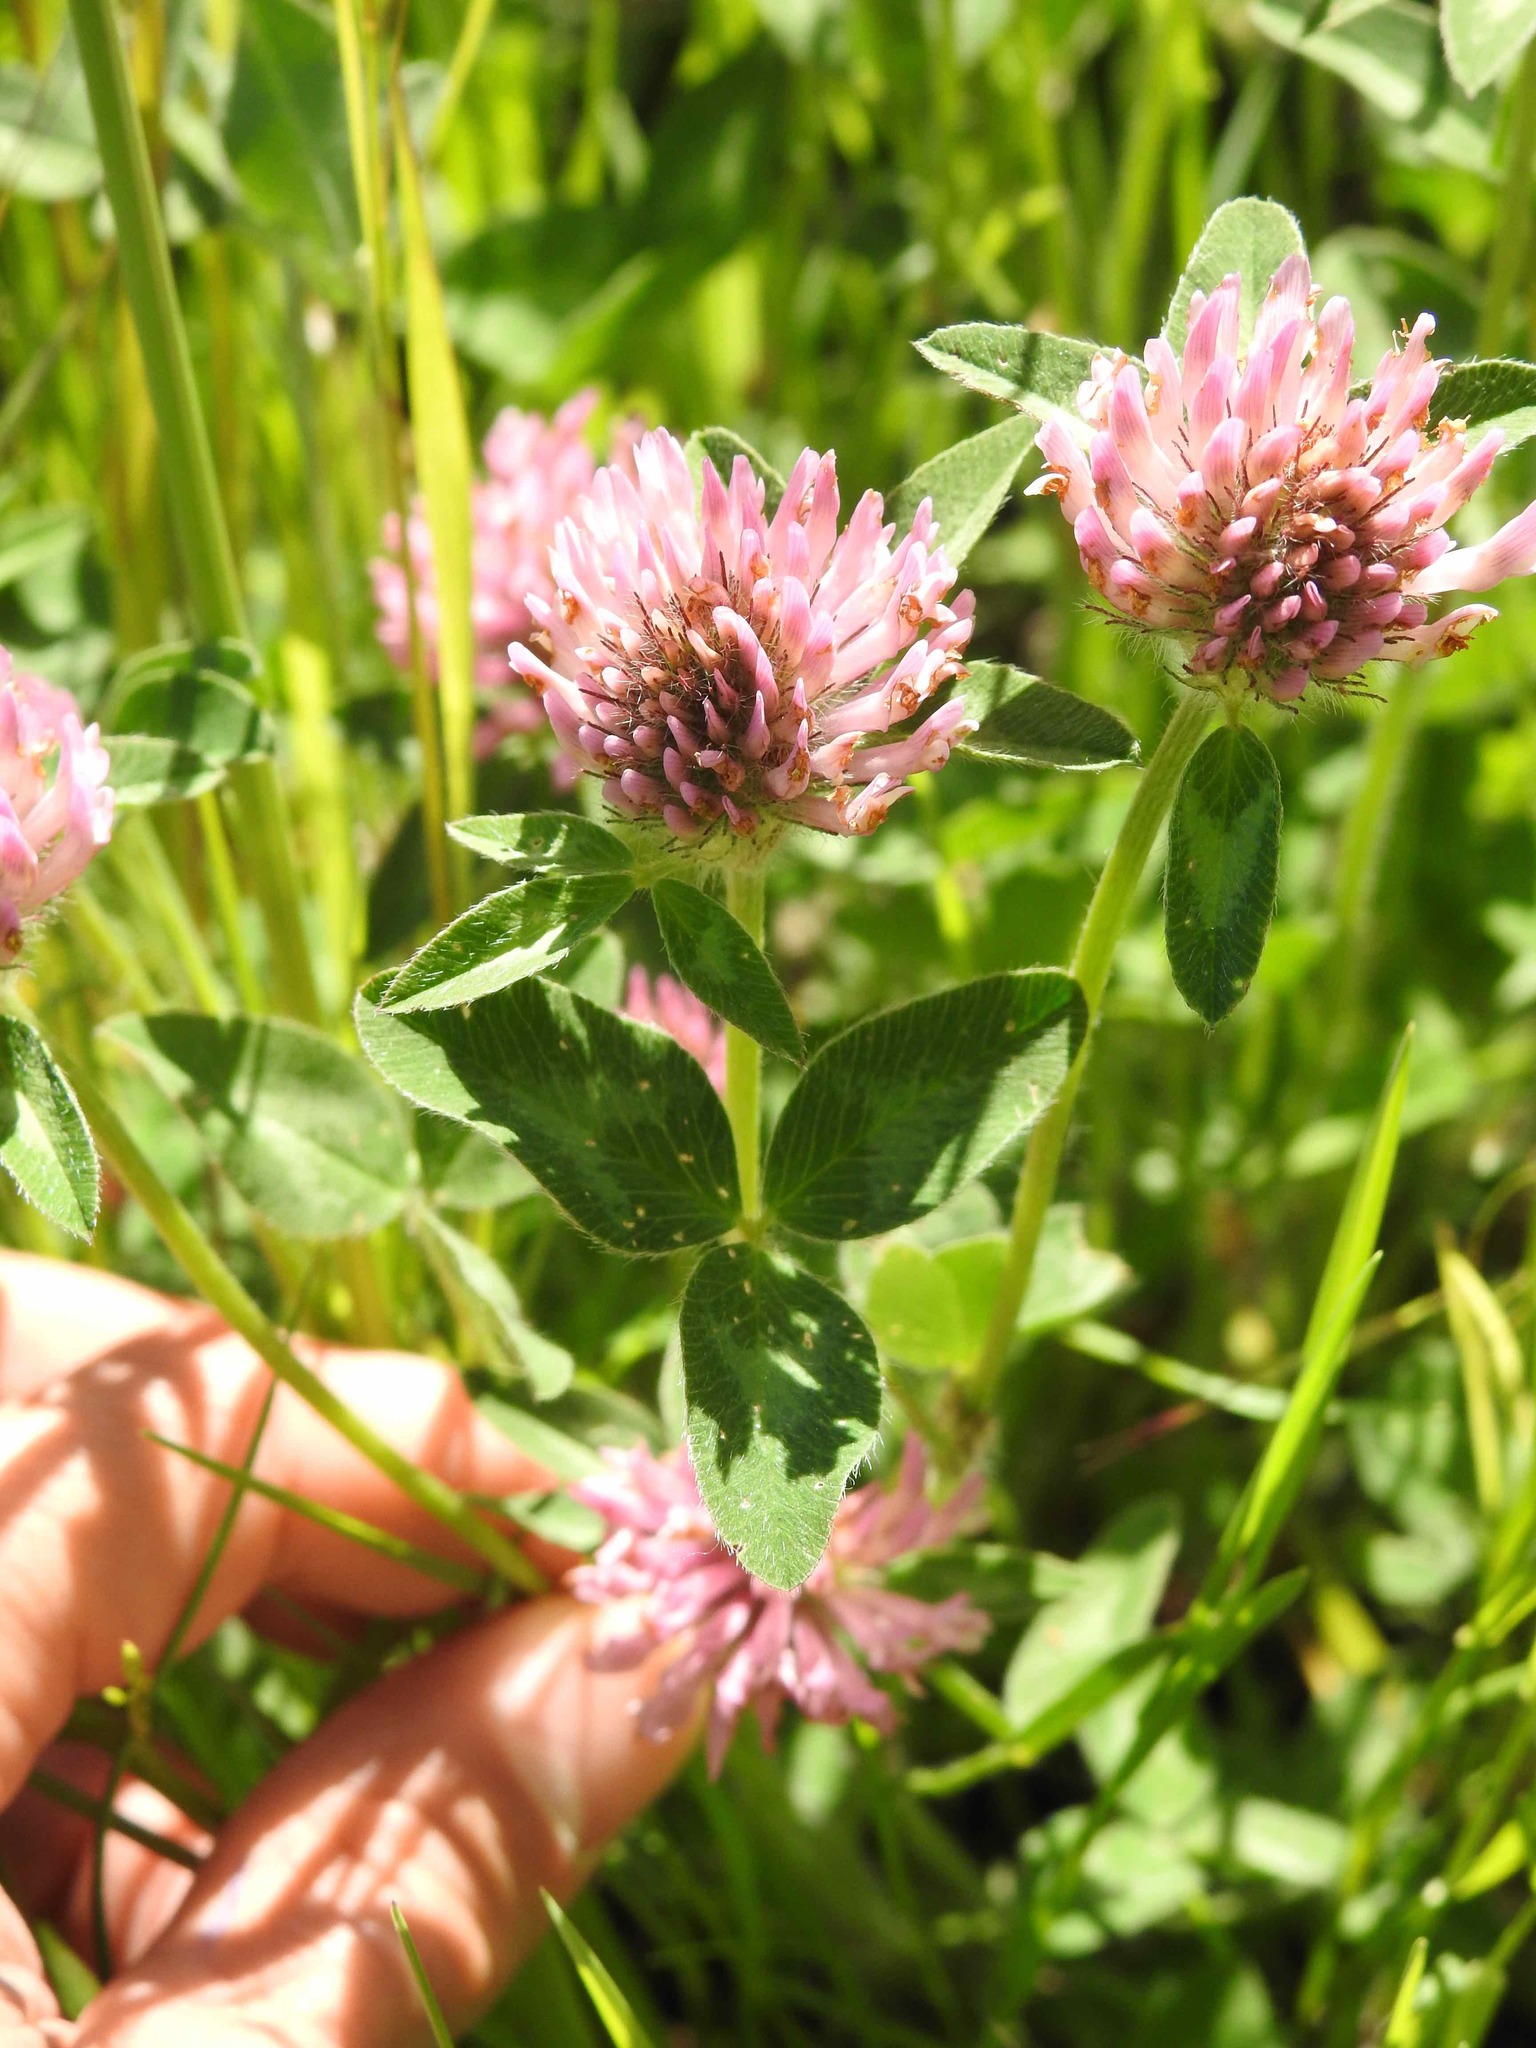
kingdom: Plantae
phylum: Tracheophyta
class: Magnoliopsida
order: Fabales
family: Fabaceae
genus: Trifolium
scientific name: Trifolium pratense
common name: Red clover
